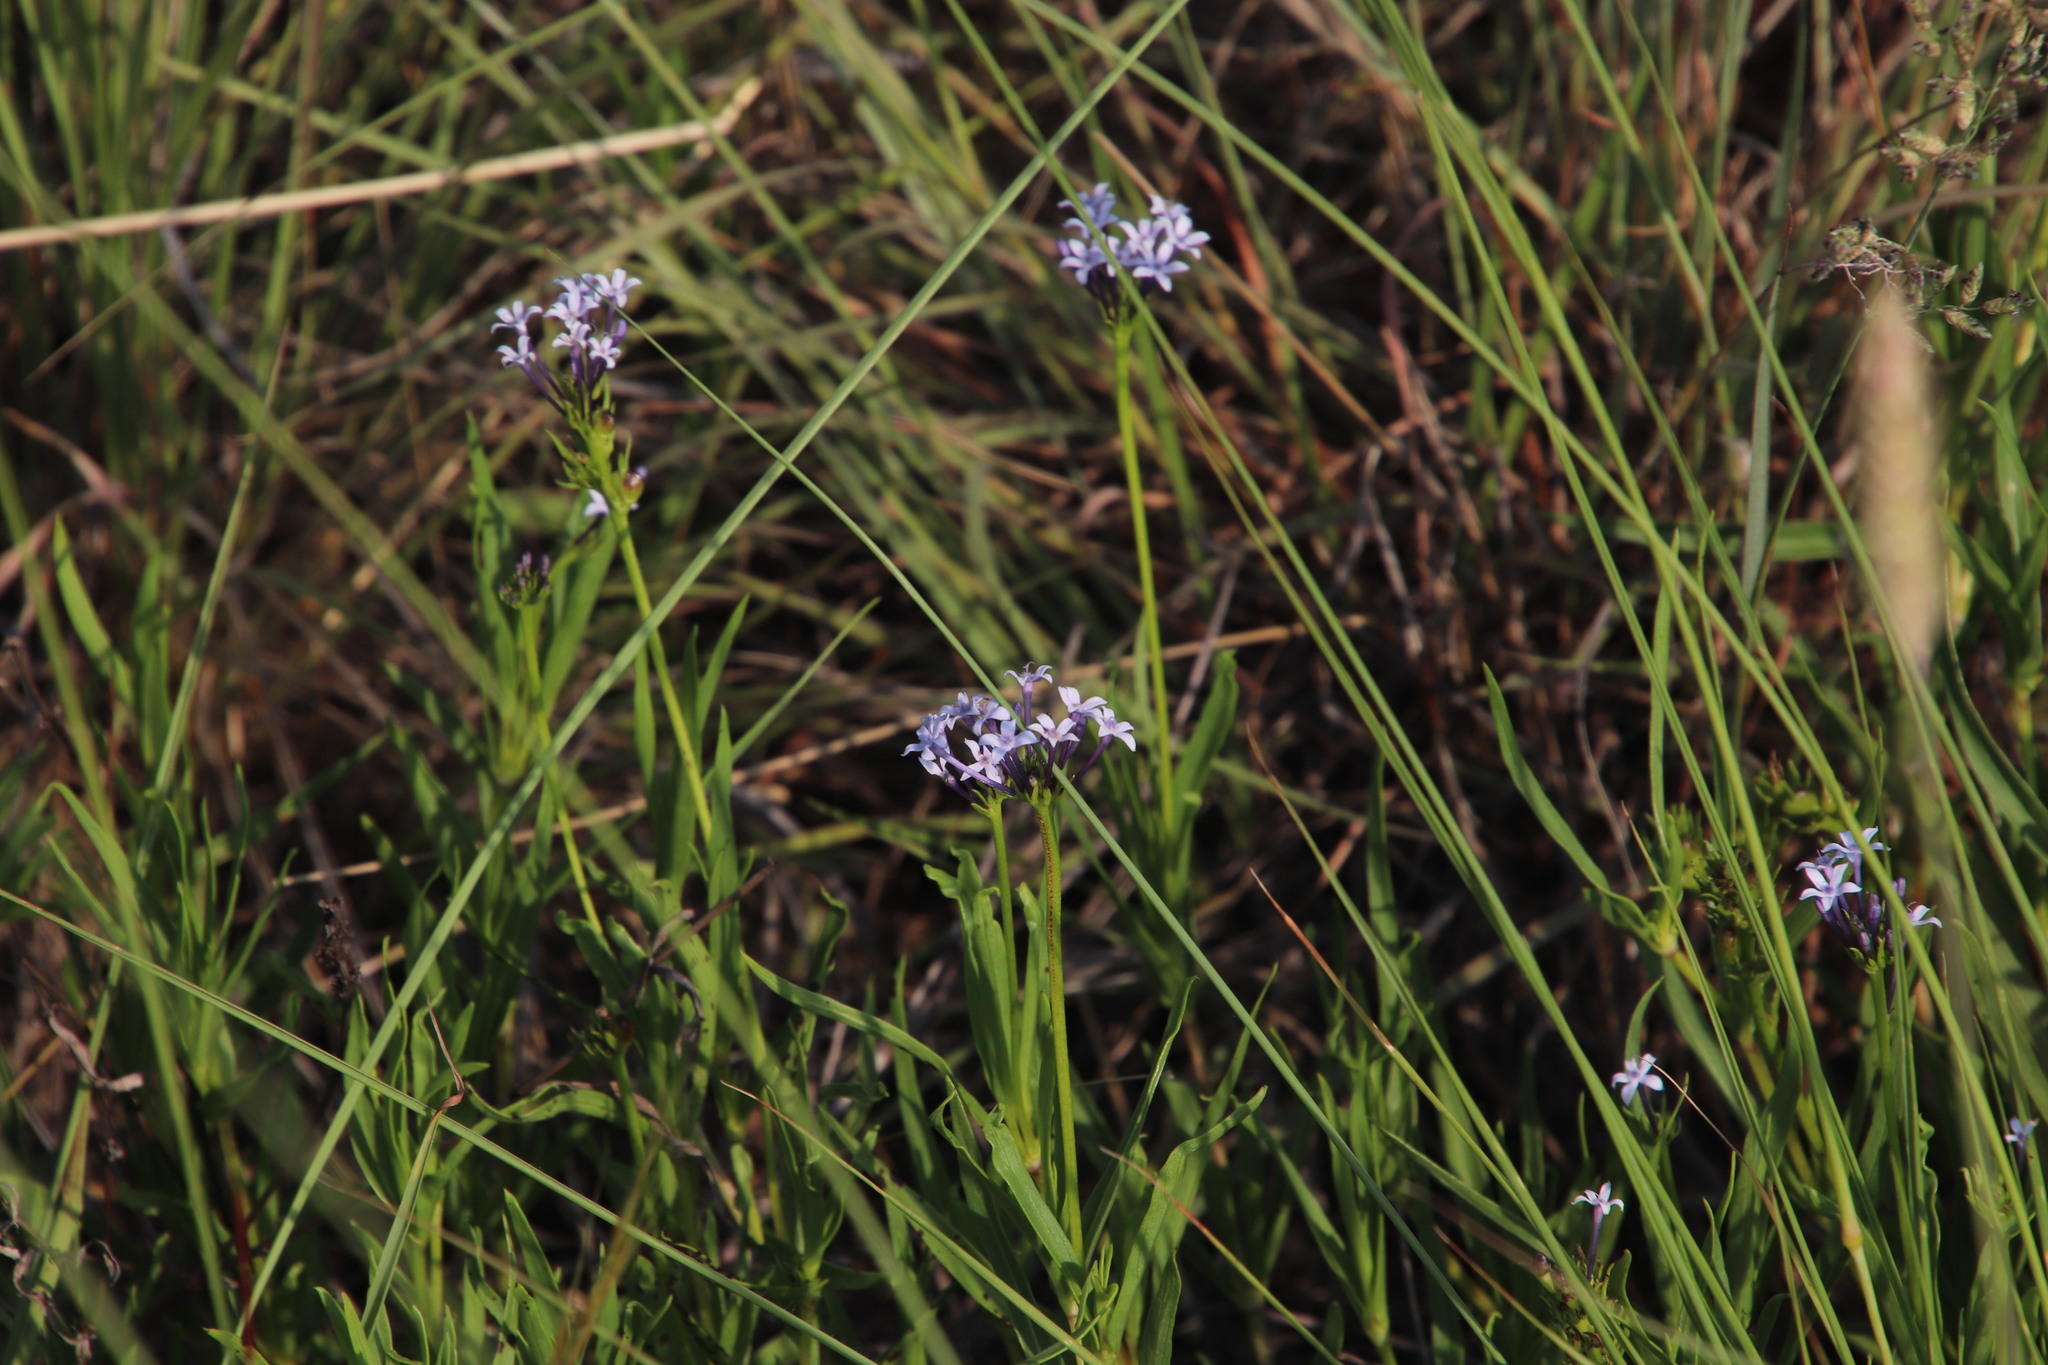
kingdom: Plantae
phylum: Tracheophyta
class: Magnoliopsida
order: Gentianales
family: Rubiaceae
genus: Pentanisia
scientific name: Pentanisia angustifolia
